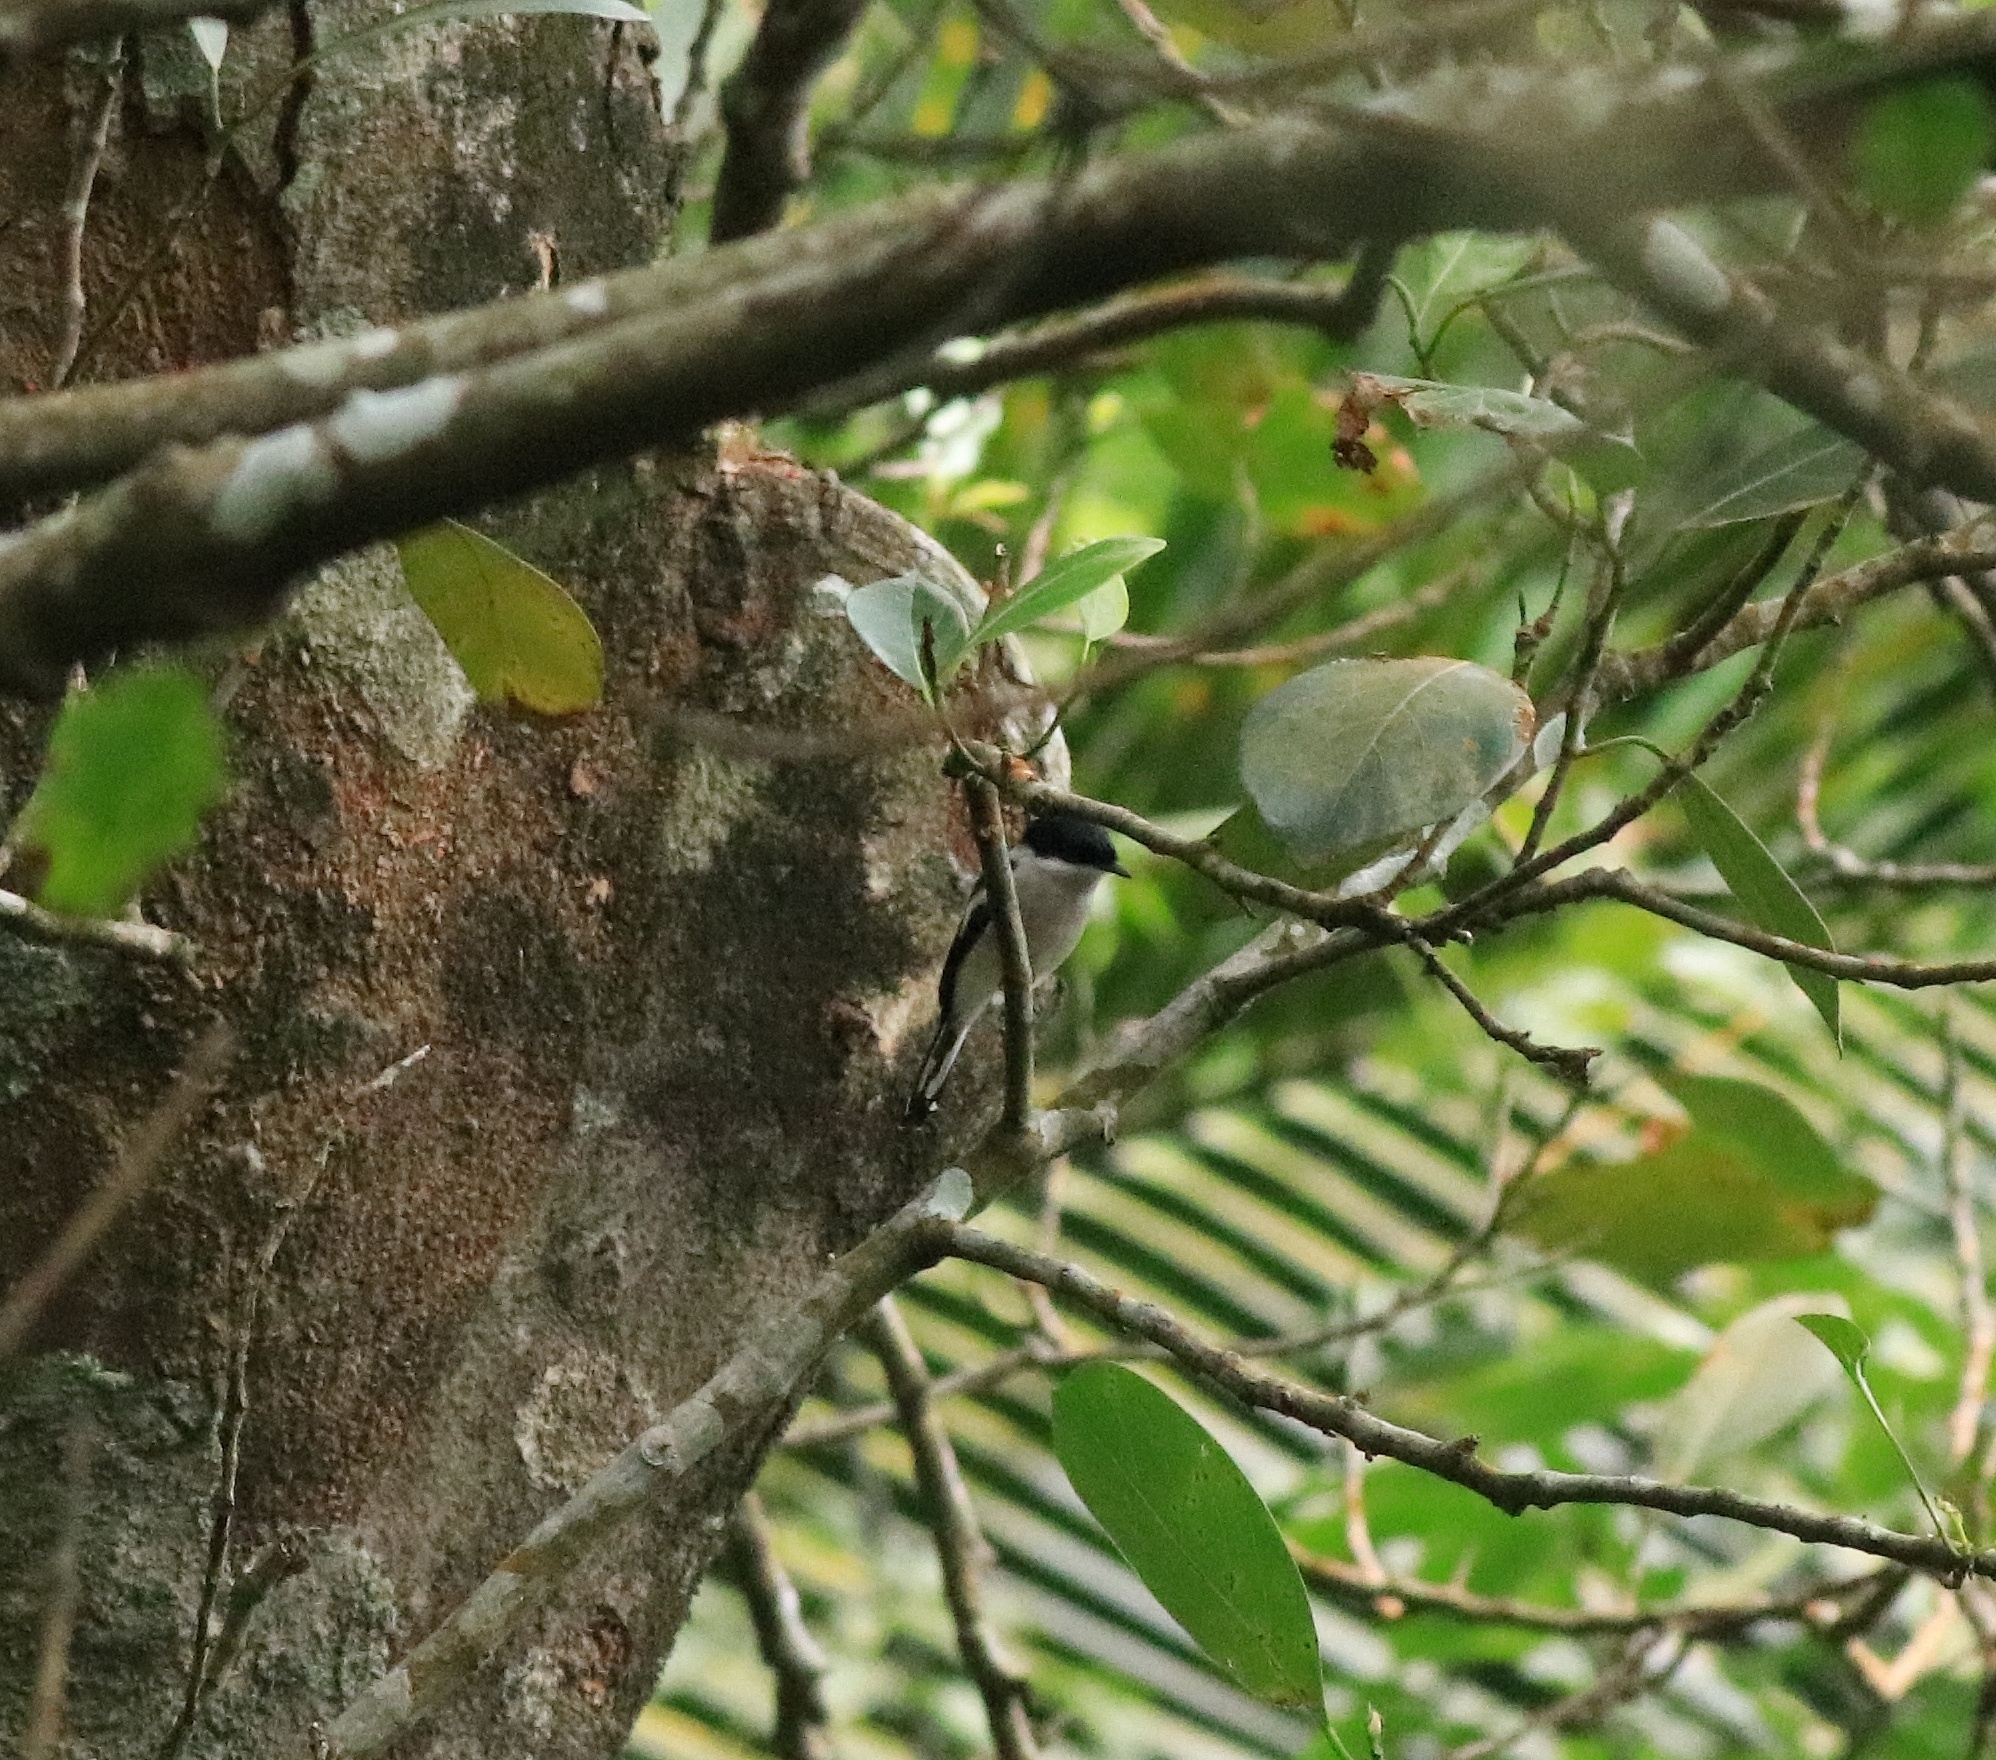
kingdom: Animalia
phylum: Chordata
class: Aves
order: Passeriformes
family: Tephrodornithidae
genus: Hemipus
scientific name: Hemipus picatus
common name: Bar-winged flycatcher-shrike
